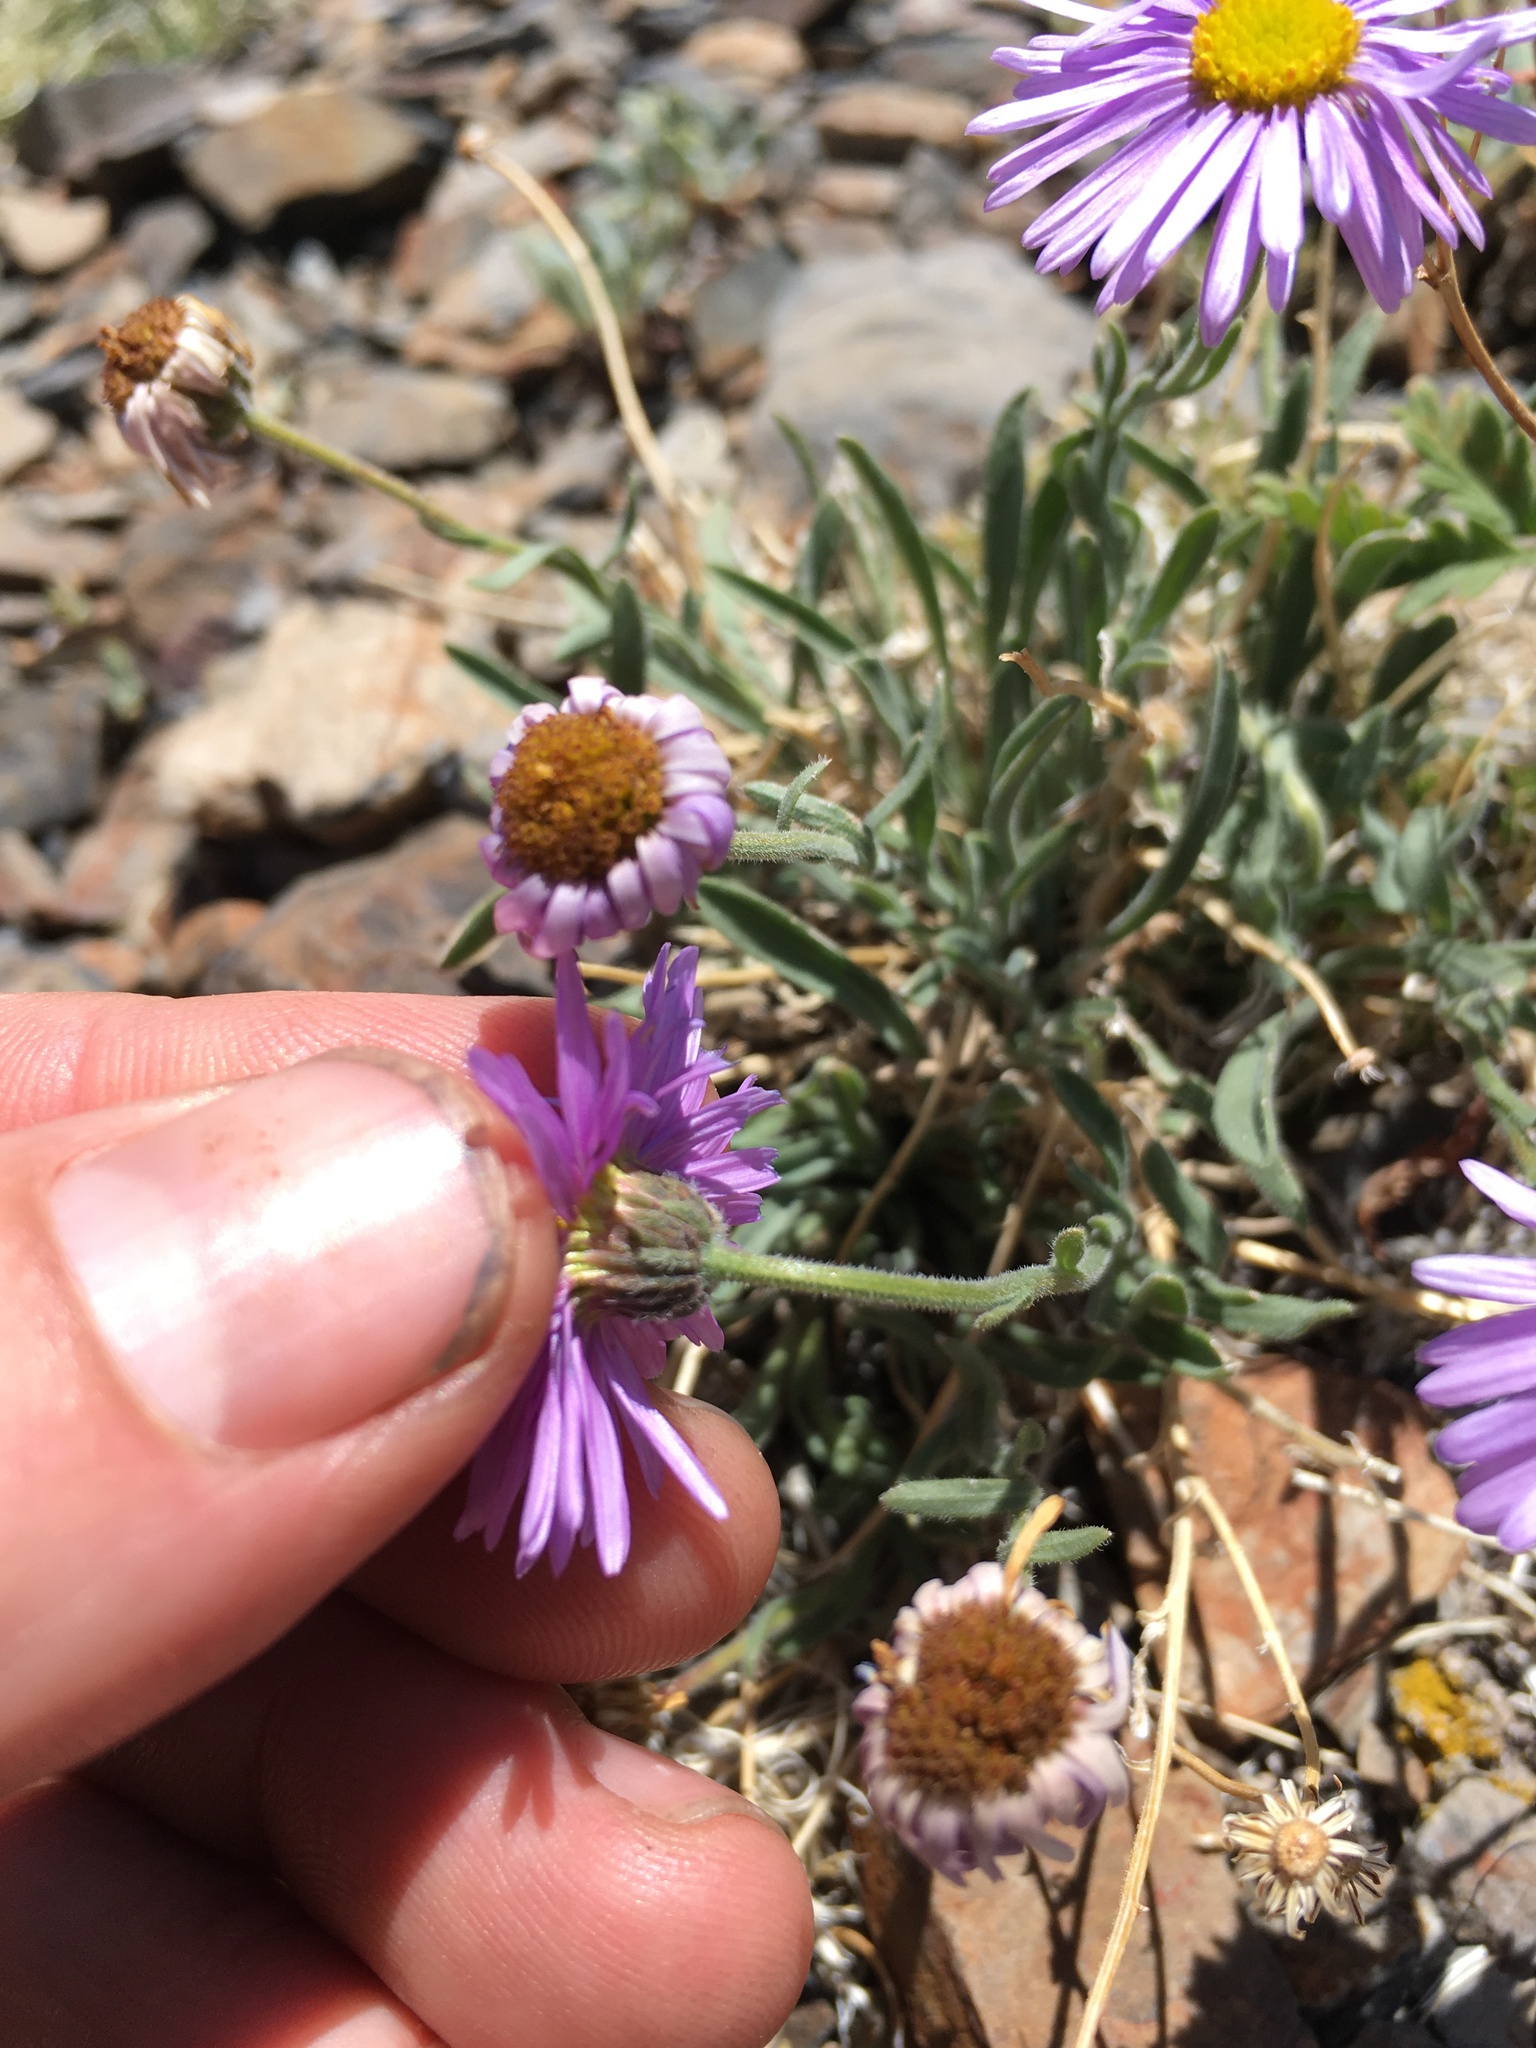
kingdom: Plantae
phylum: Tracheophyta
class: Magnoliopsida
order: Asterales
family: Asteraceae
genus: Erigeron
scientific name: Erigeron clokeyi
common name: Clokey's fleabane
